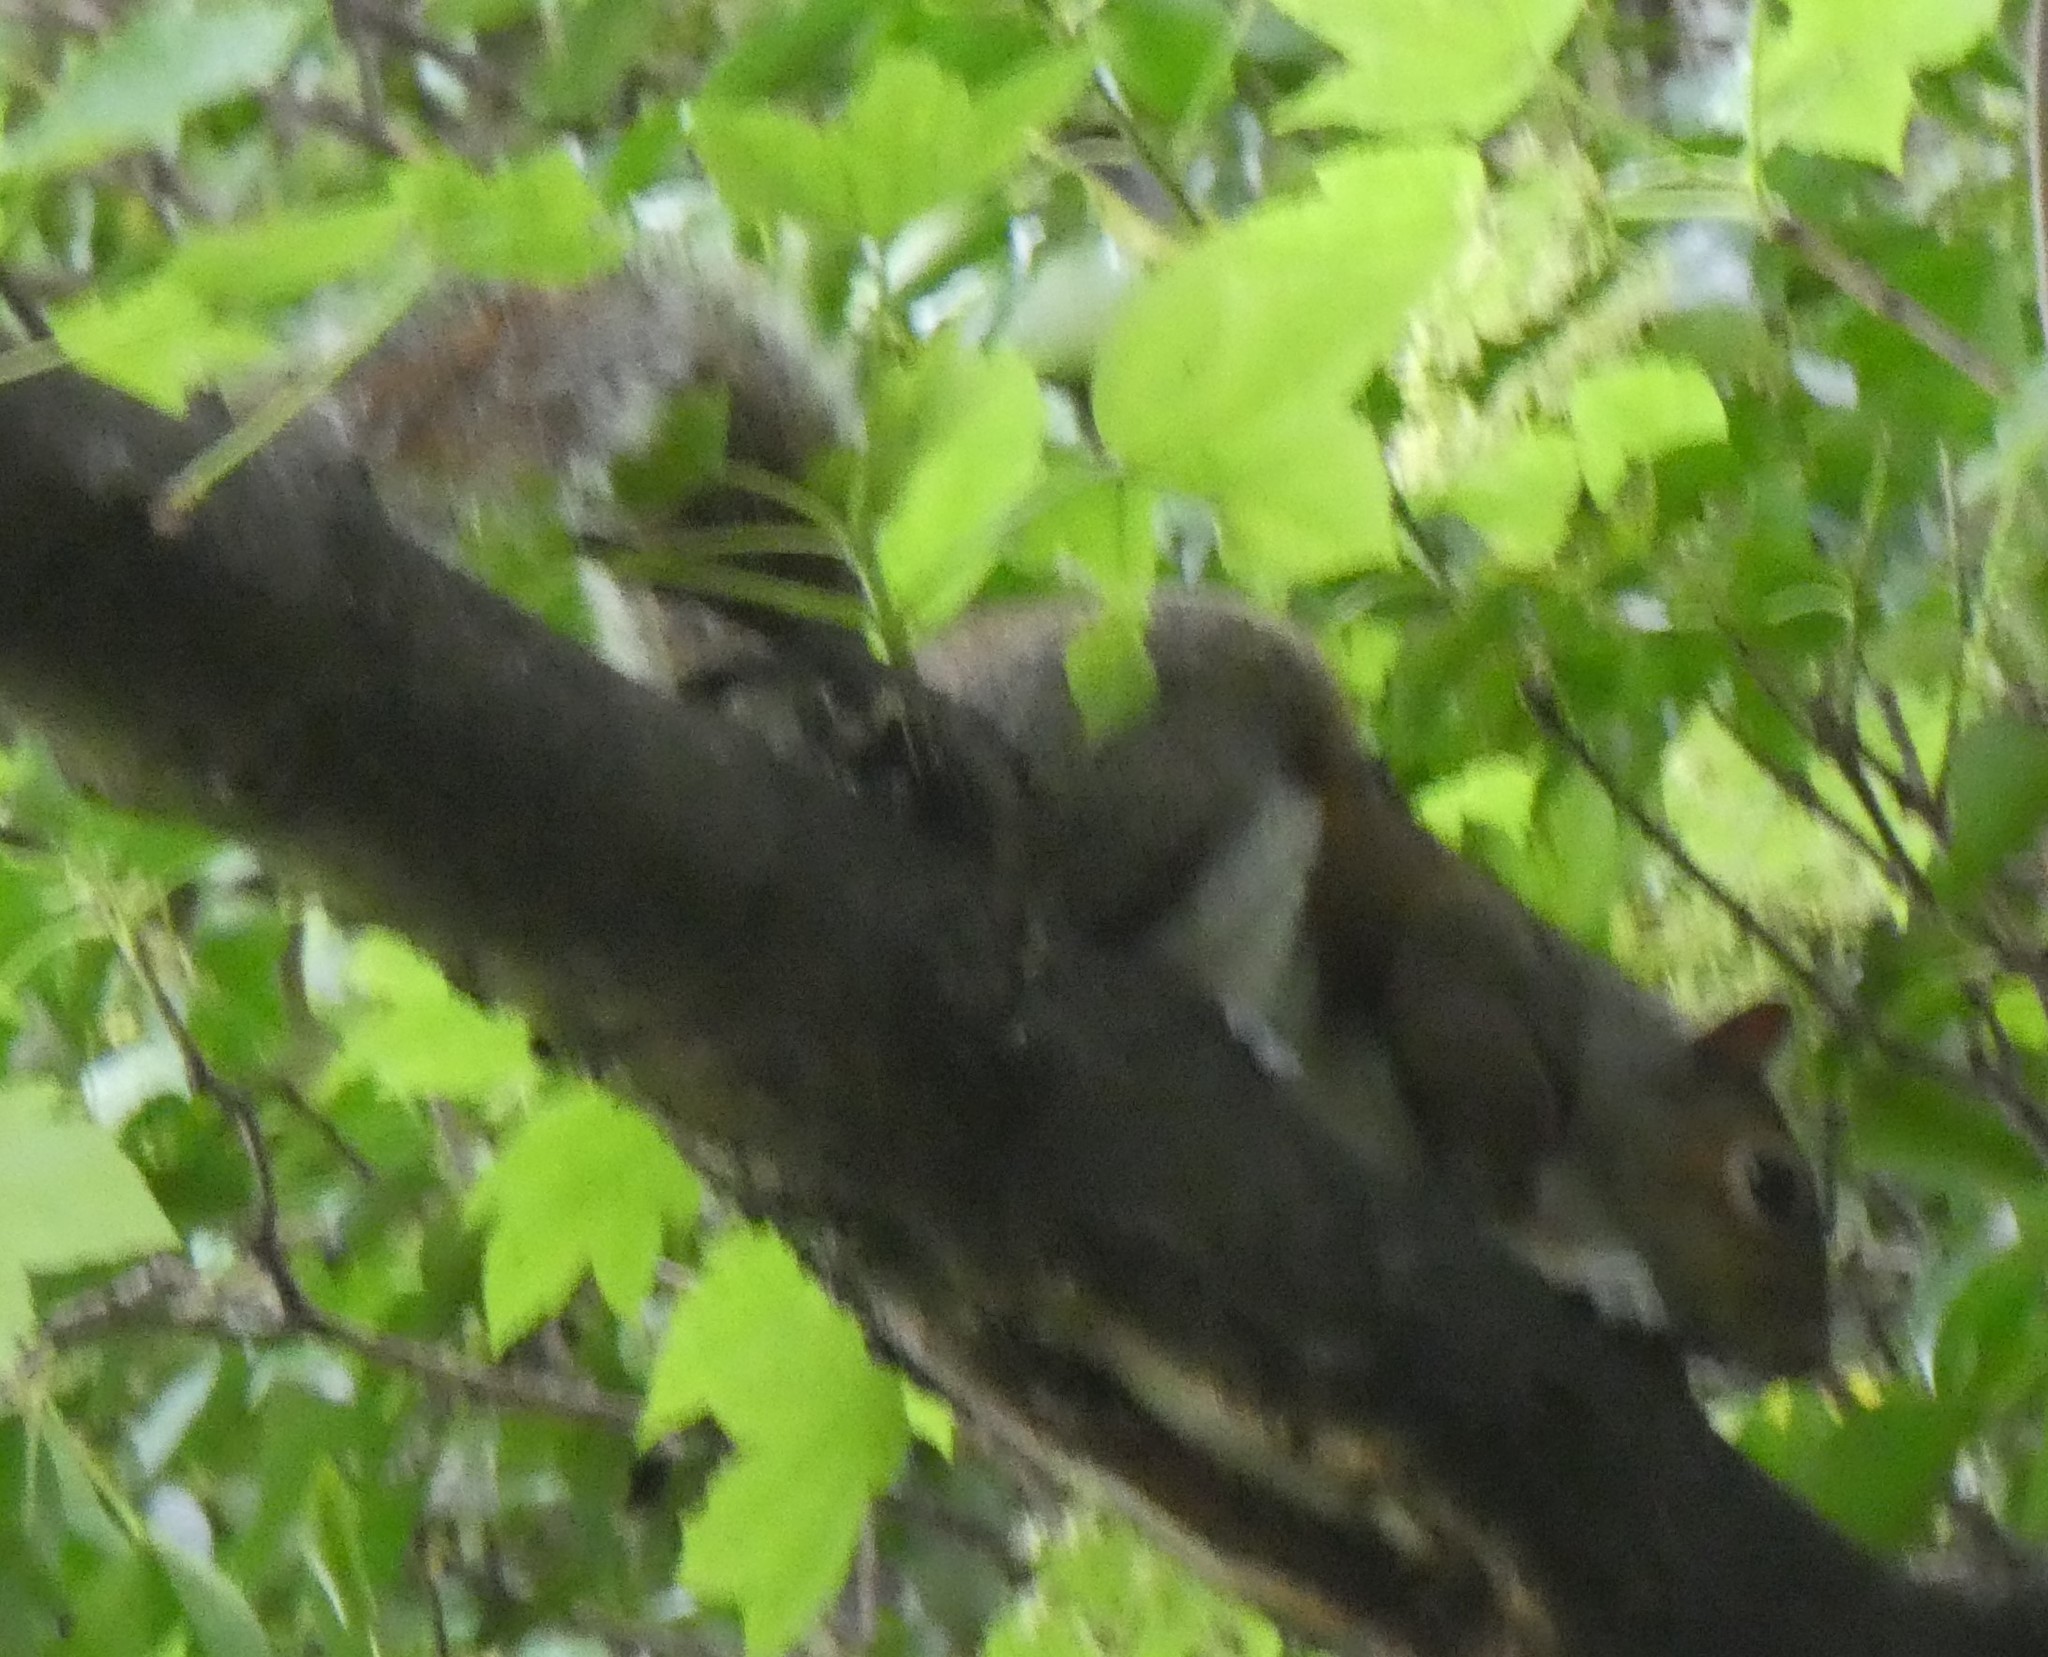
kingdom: Animalia
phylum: Chordata
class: Mammalia
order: Rodentia
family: Sciuridae
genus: Sciurus
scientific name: Sciurus carolinensis
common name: Eastern gray squirrel
